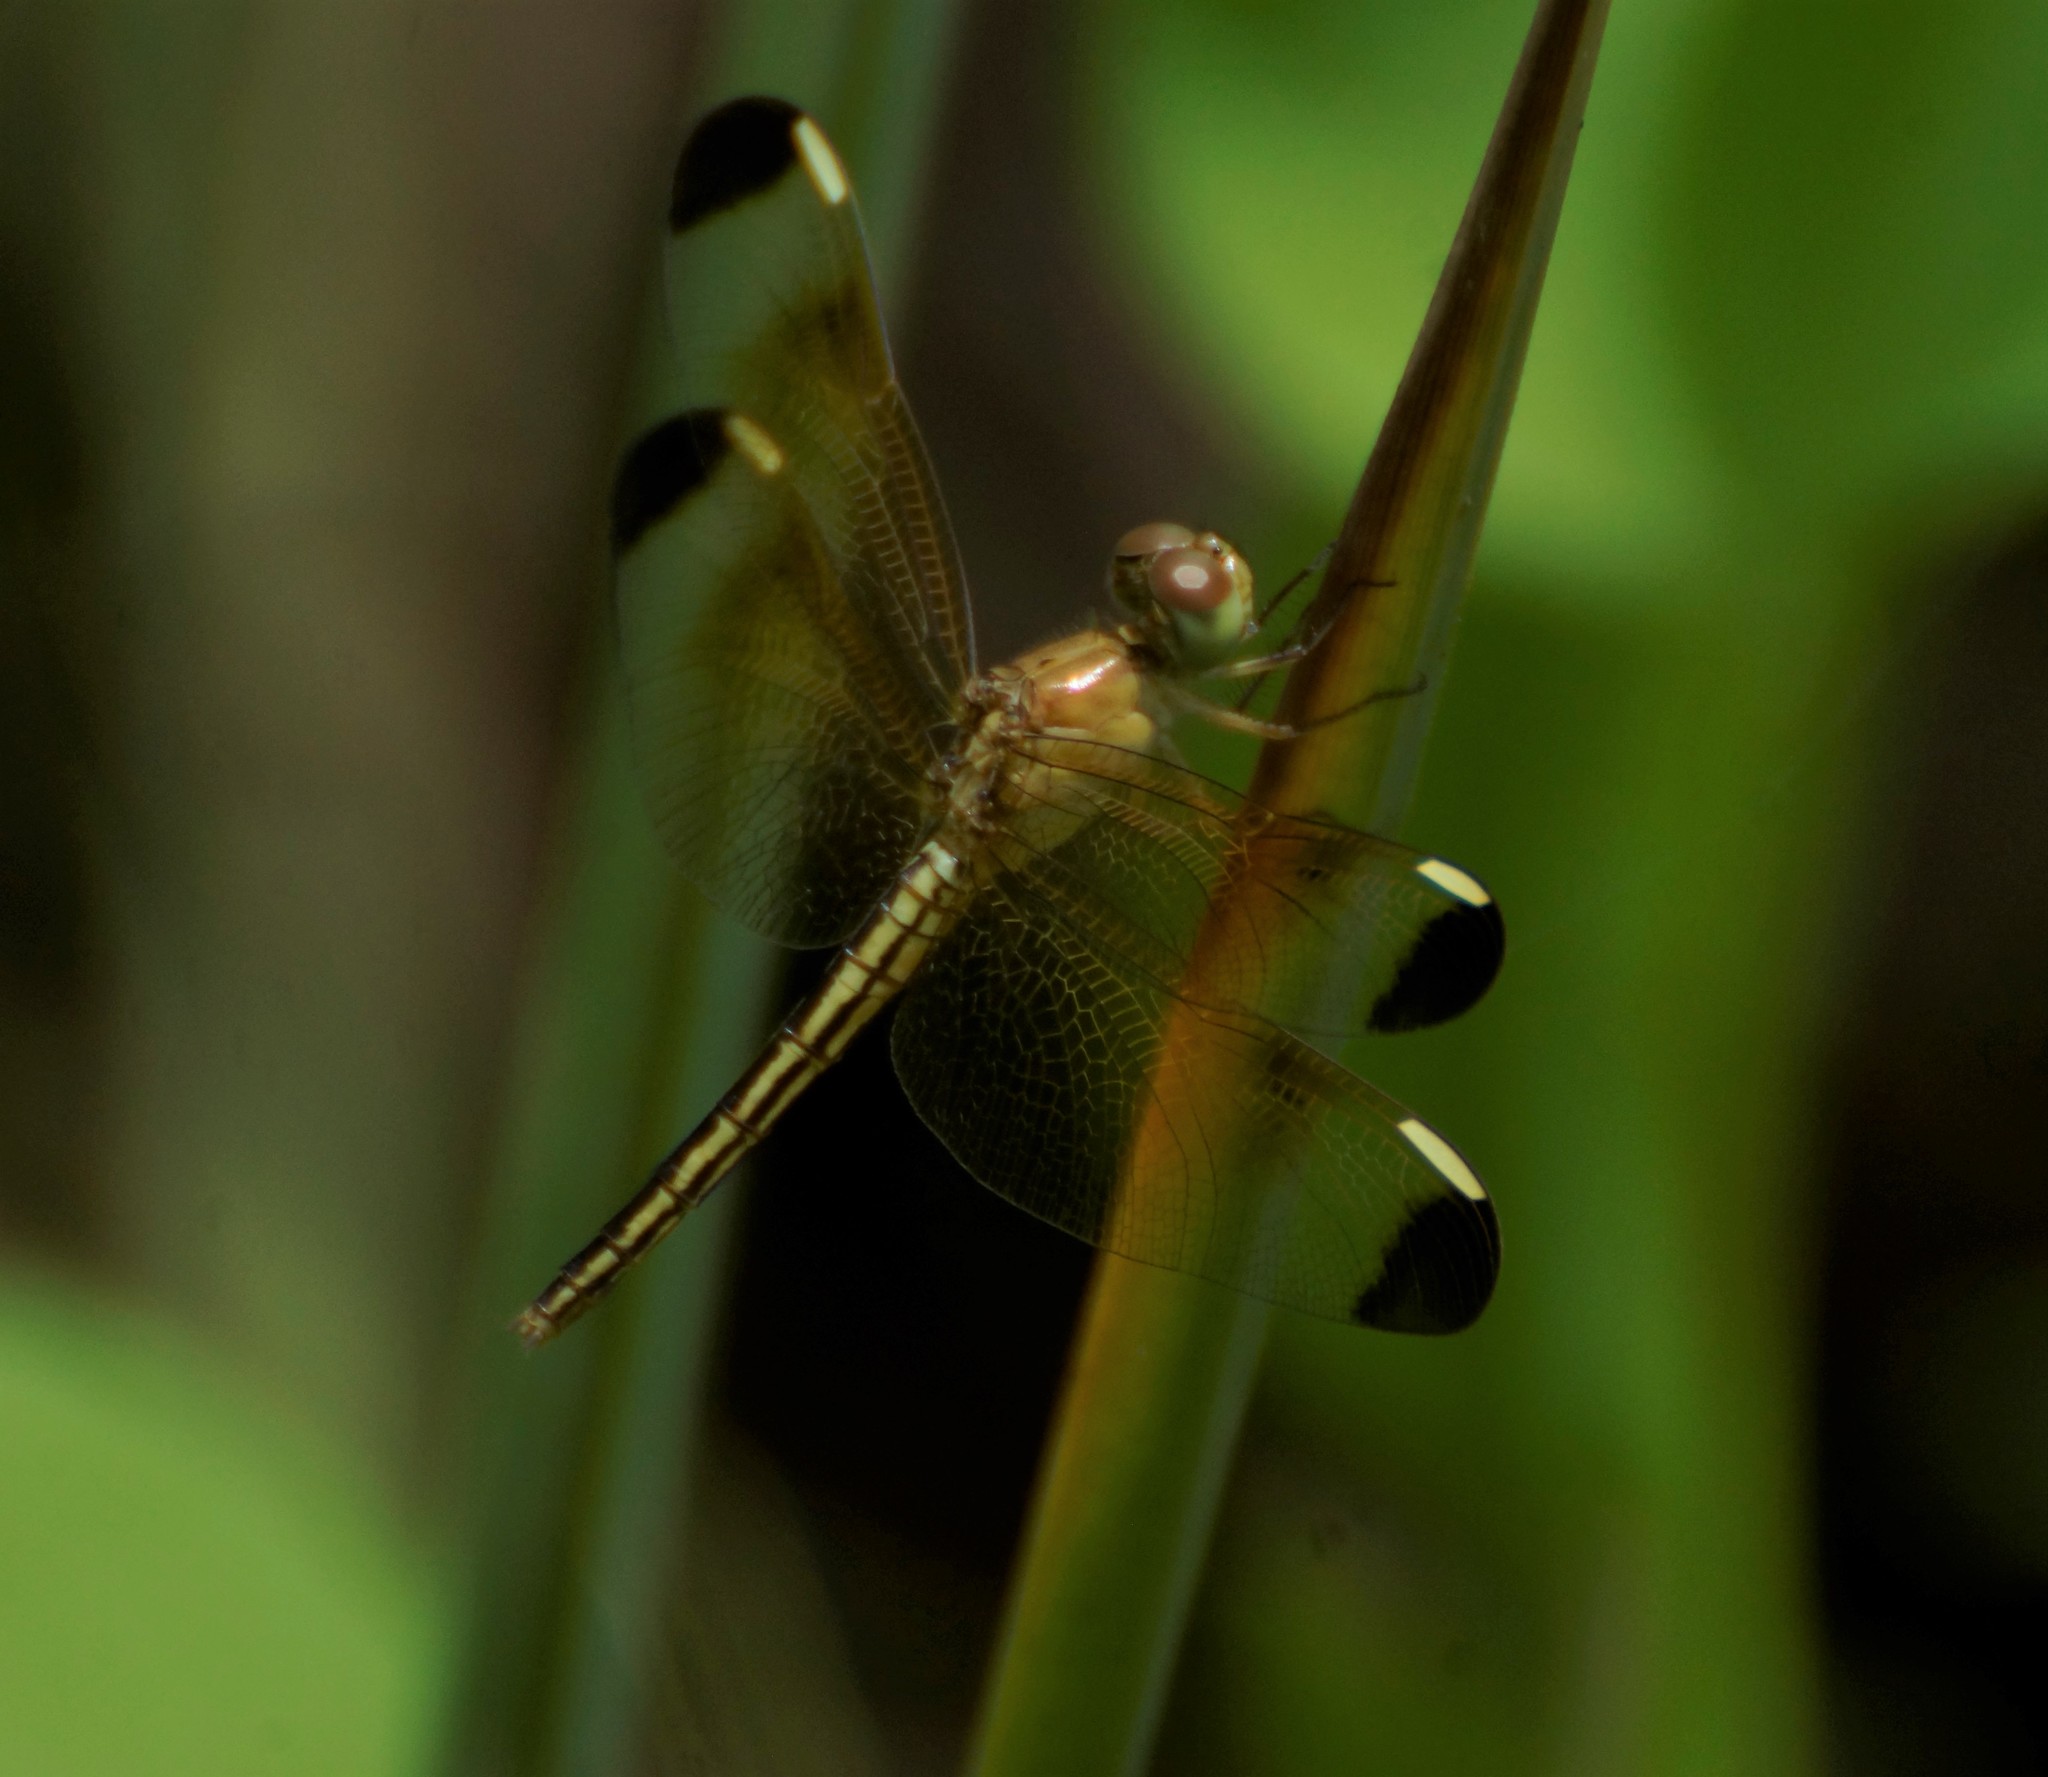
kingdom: Animalia
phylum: Arthropoda
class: Insecta
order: Odonata
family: Libellulidae
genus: Neurothemis
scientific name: Neurothemis stigmatizans
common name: Painted grasshawk
